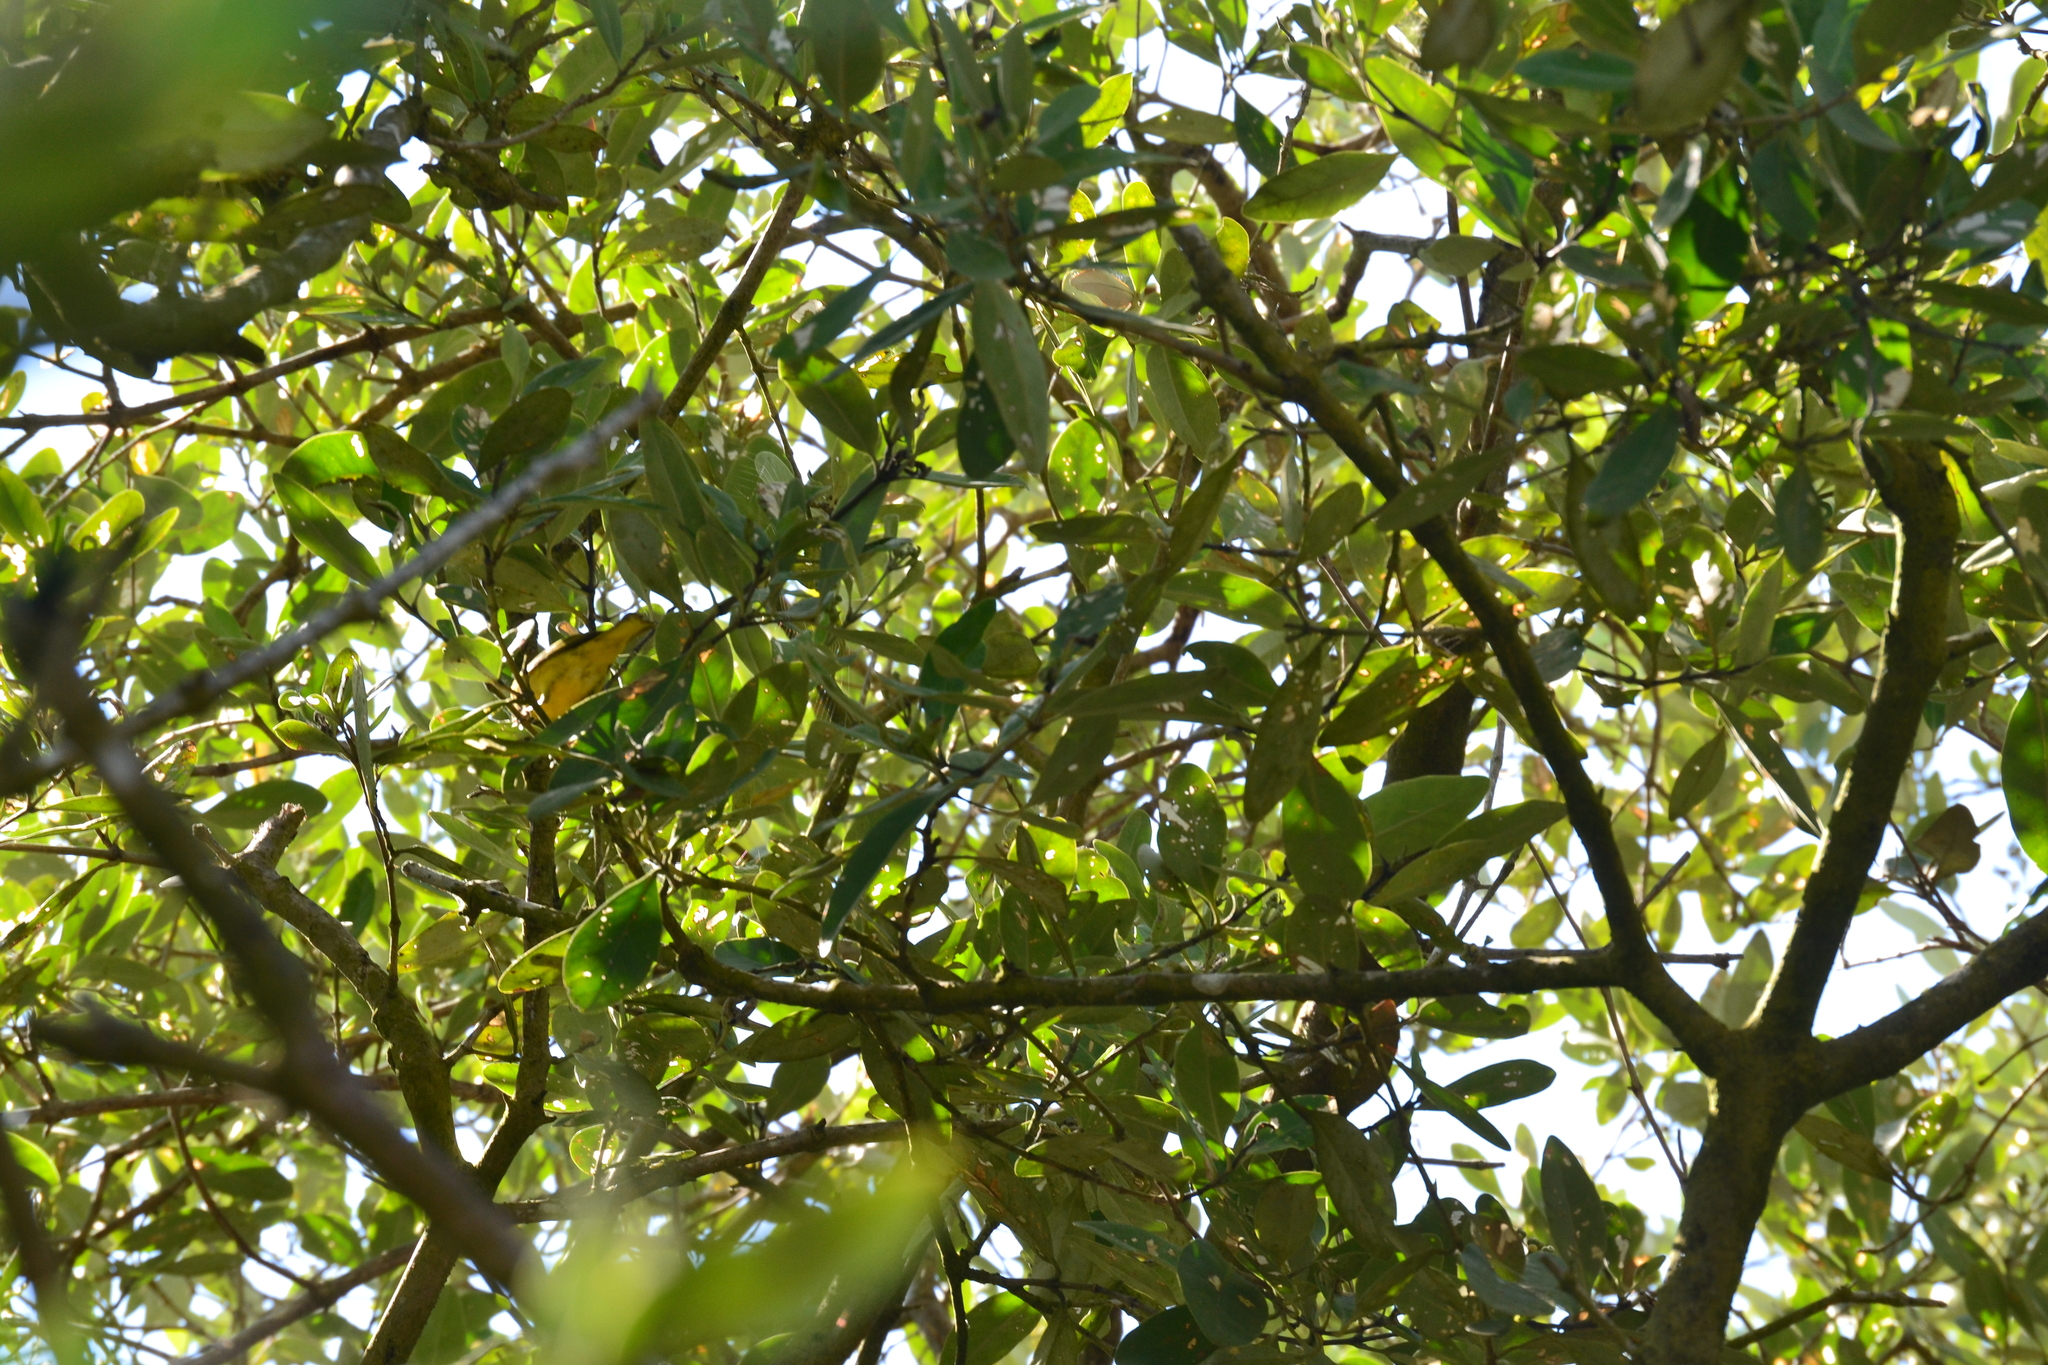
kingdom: Animalia
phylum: Chordata
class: Aves
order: Passeriformes
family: Parulidae
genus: Setophaga
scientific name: Setophaga petechia
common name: Yellow warbler
